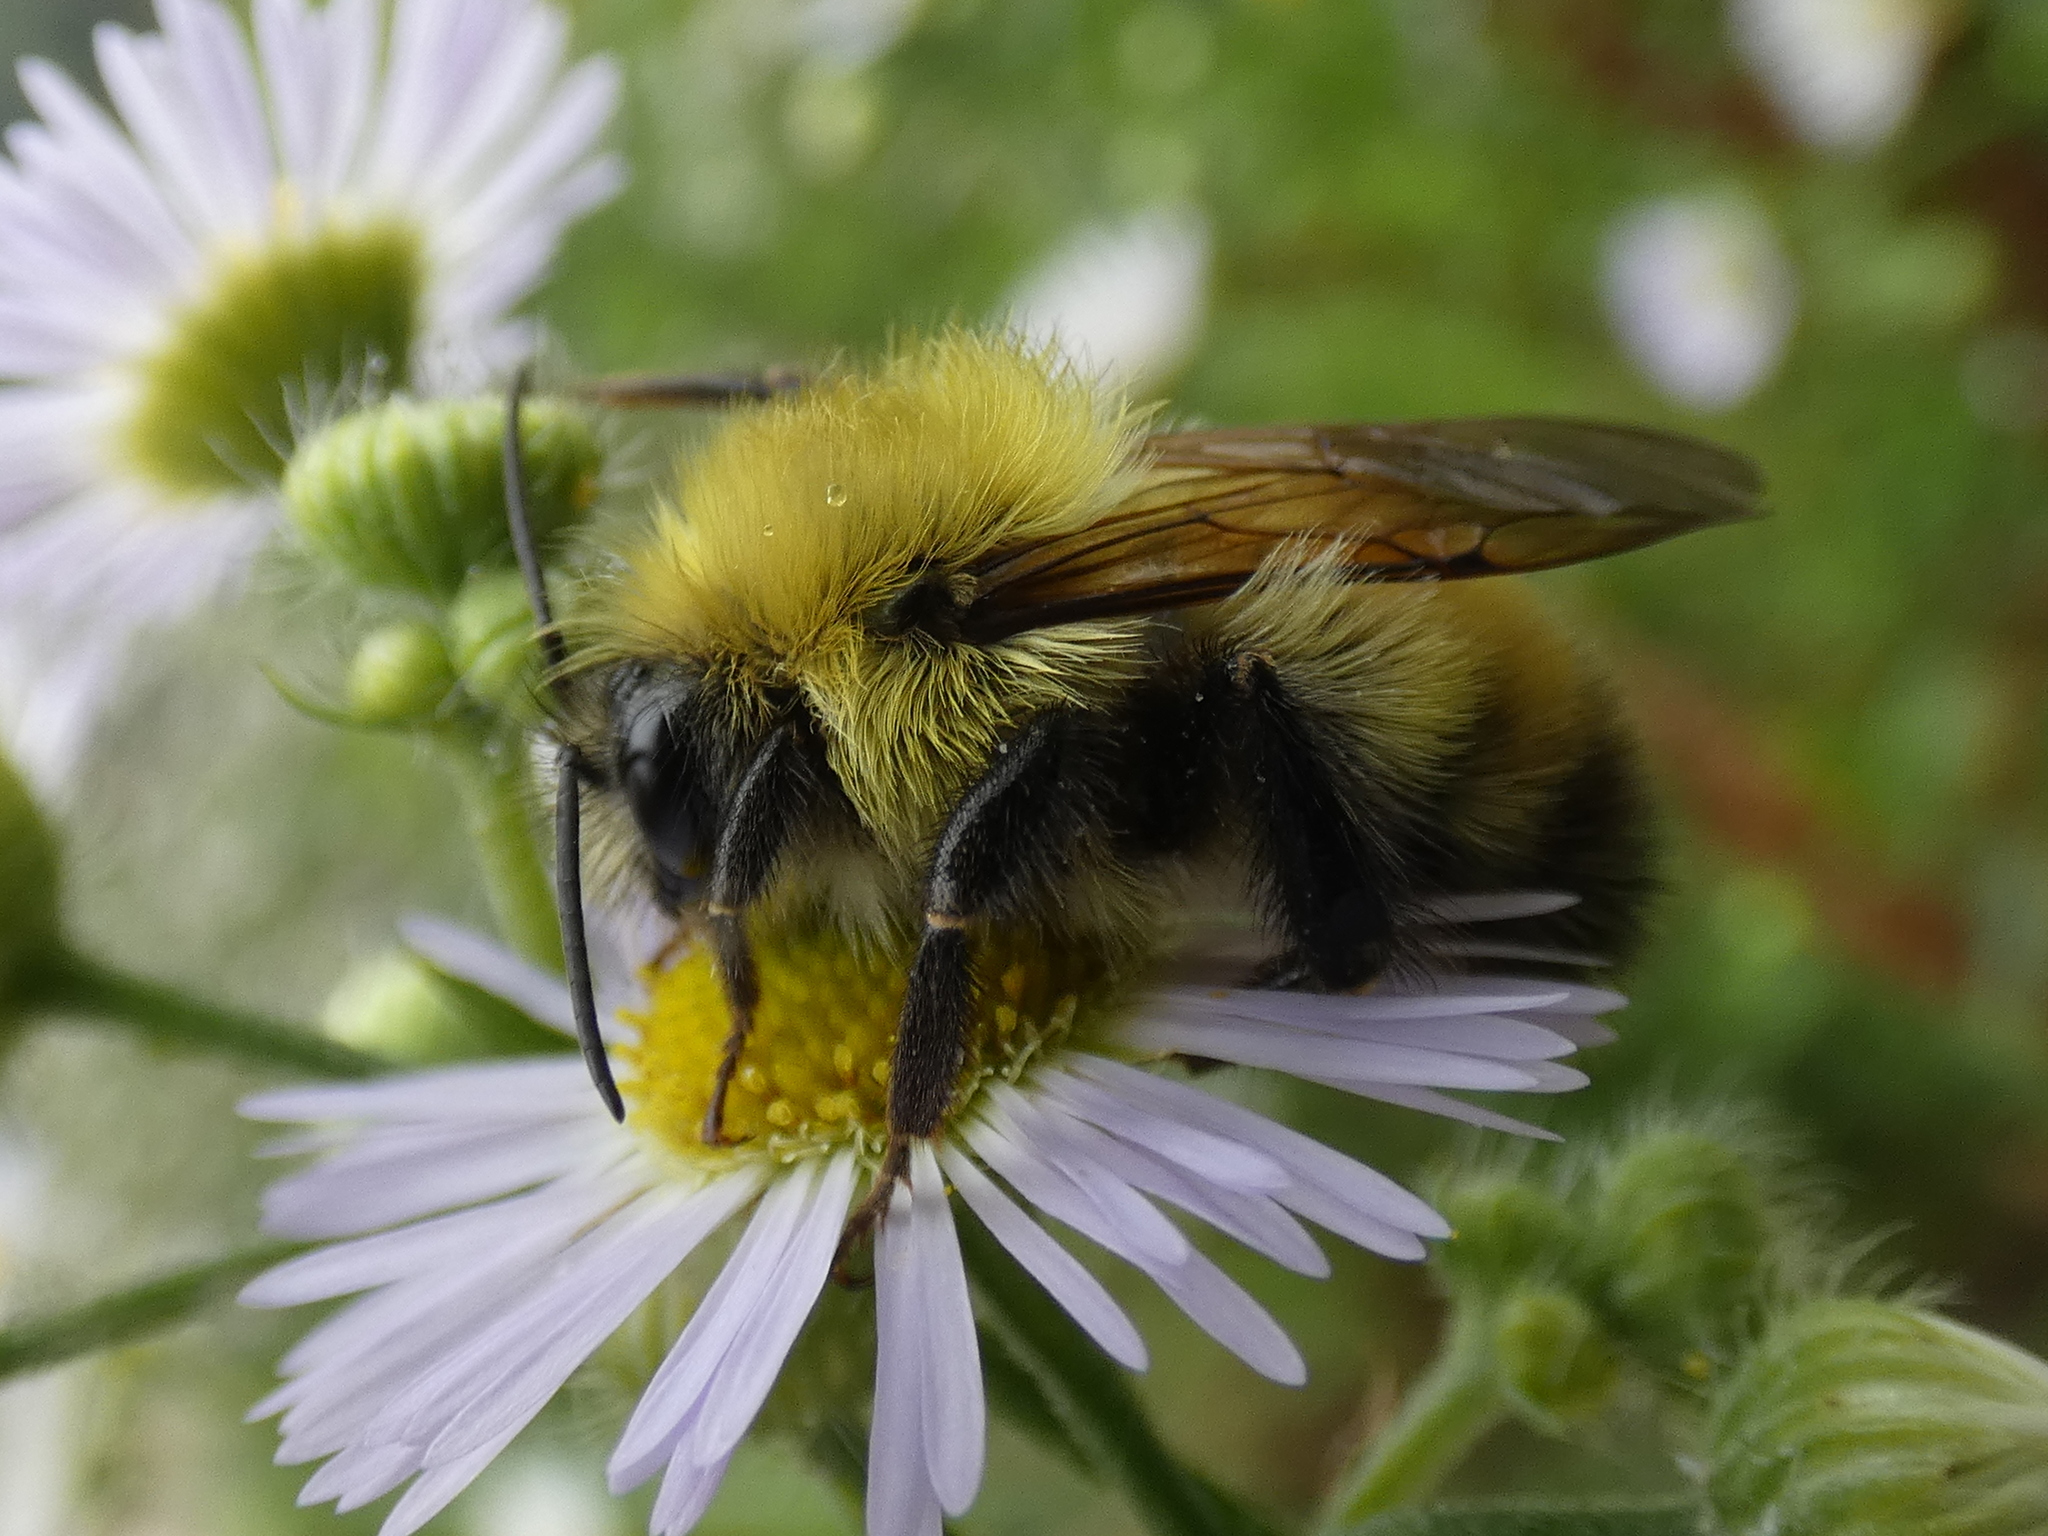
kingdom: Animalia
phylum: Arthropoda
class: Insecta
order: Hymenoptera
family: Apidae
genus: Bombus
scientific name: Bombus perplexus
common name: Confusing bumble bee
